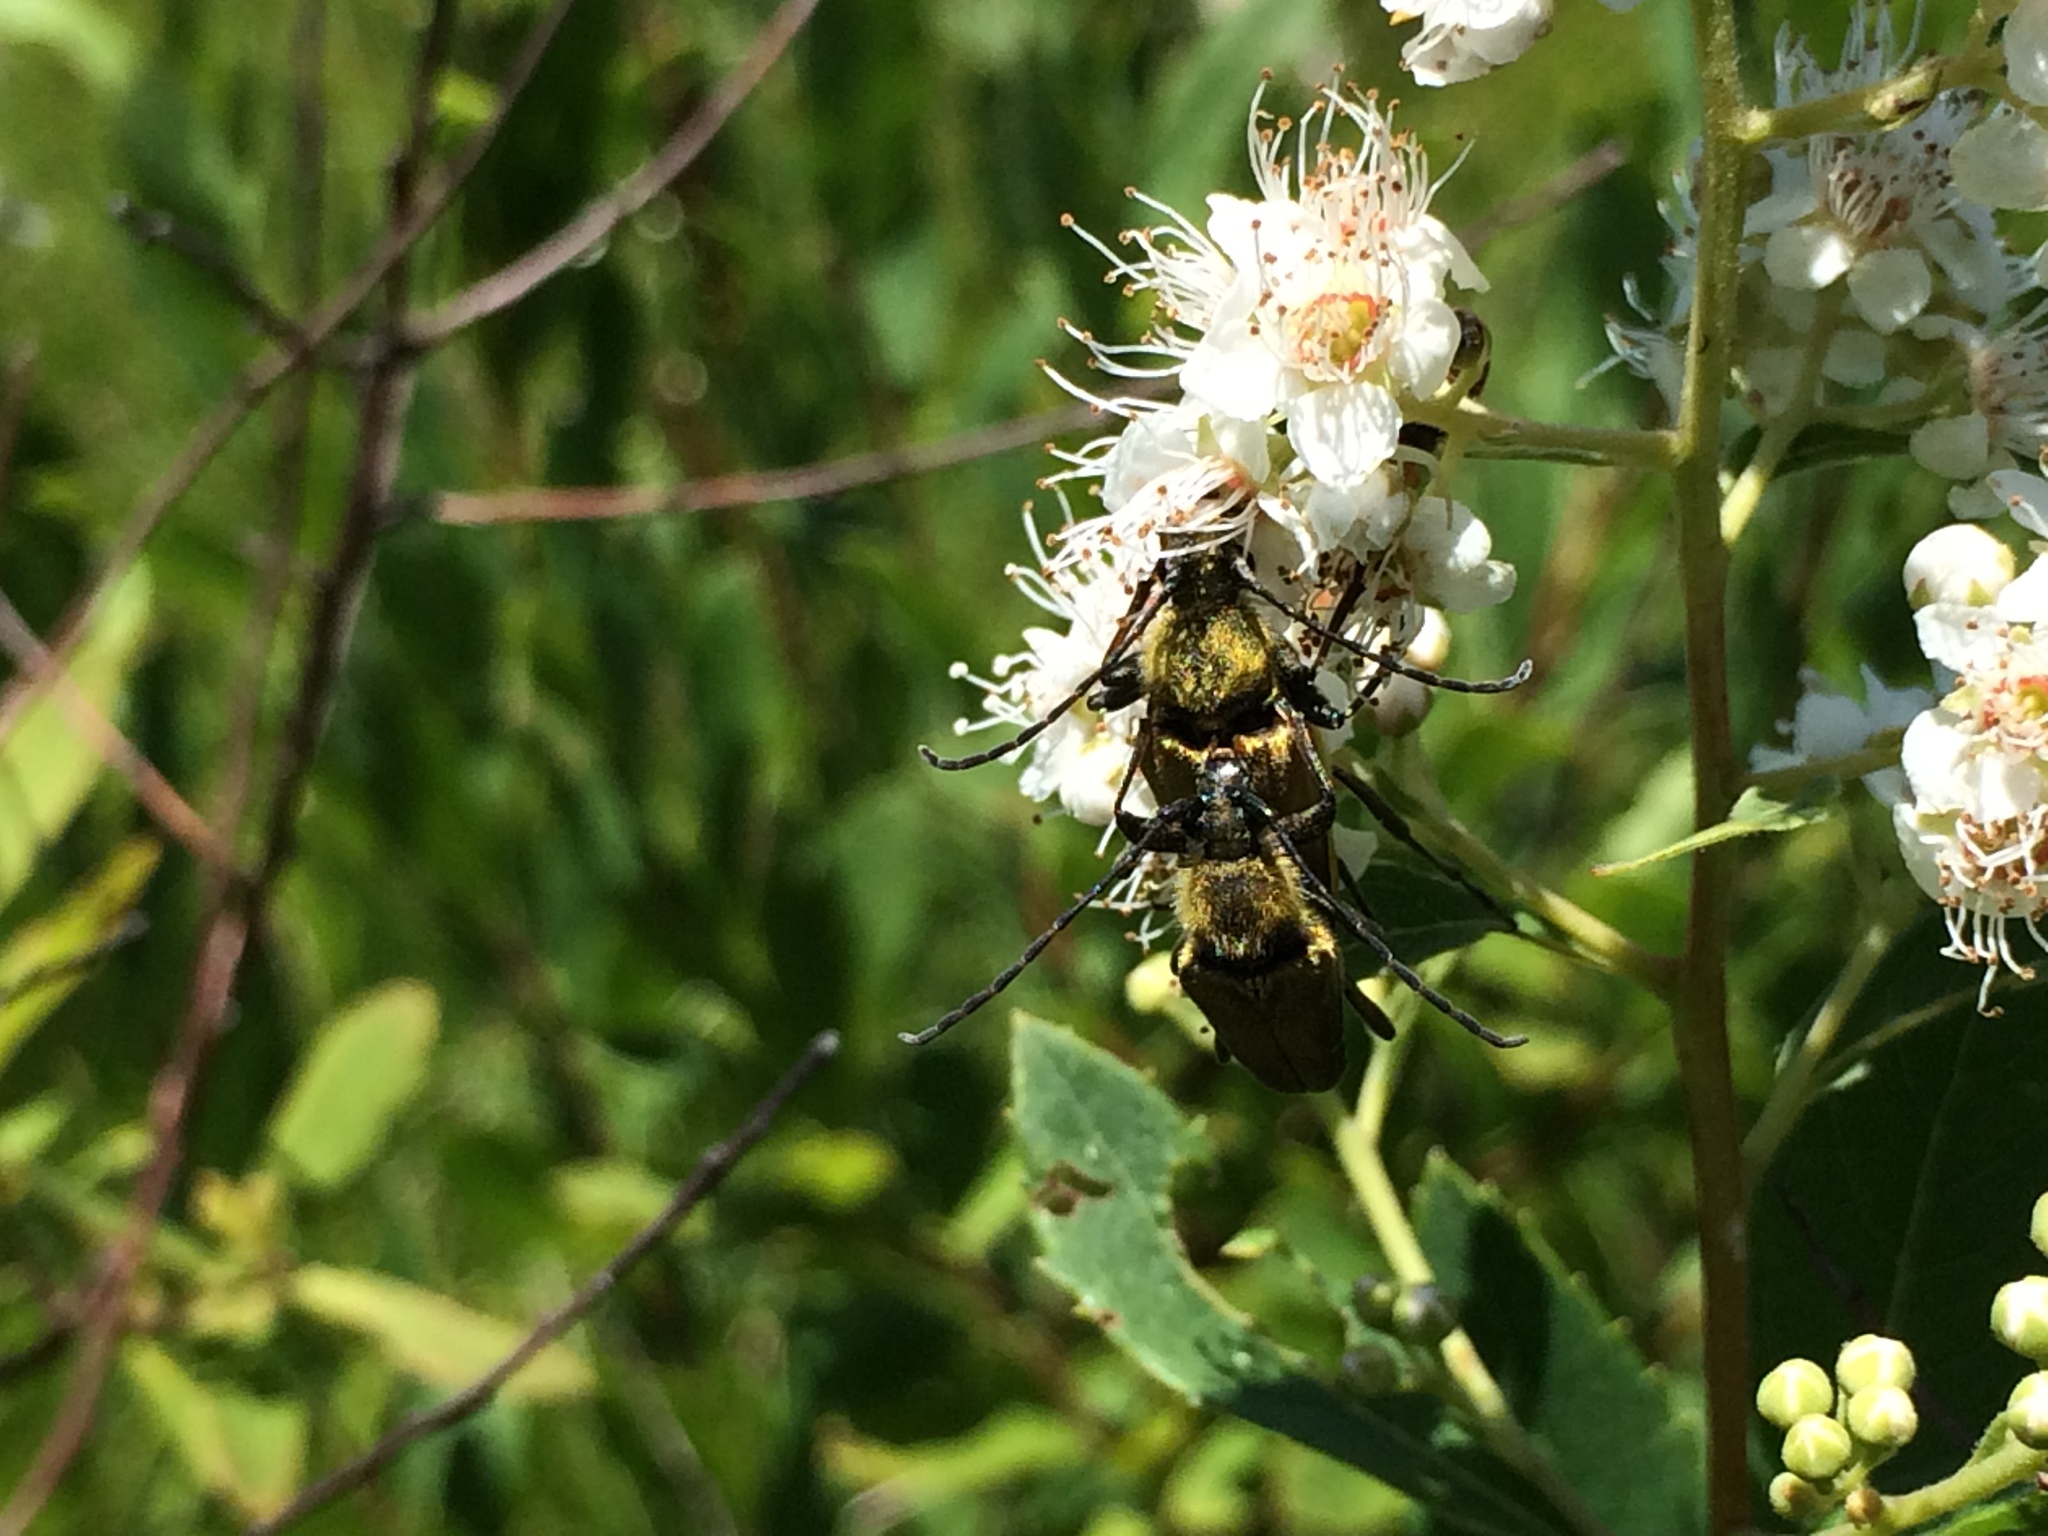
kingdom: Animalia
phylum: Arthropoda
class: Insecta
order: Coleoptera
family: Cerambycidae
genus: Cosmosalia
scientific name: Cosmosalia chrysocoma
